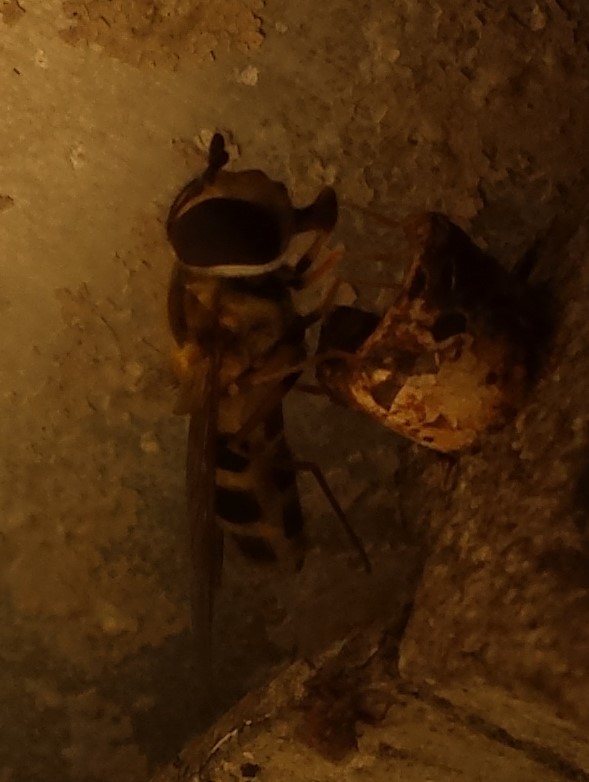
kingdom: Animalia
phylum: Arthropoda
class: Insecta
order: Diptera
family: Syrphidae
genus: Epistrophe
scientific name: Epistrophe grossulariae
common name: Black-horned smoothtail
